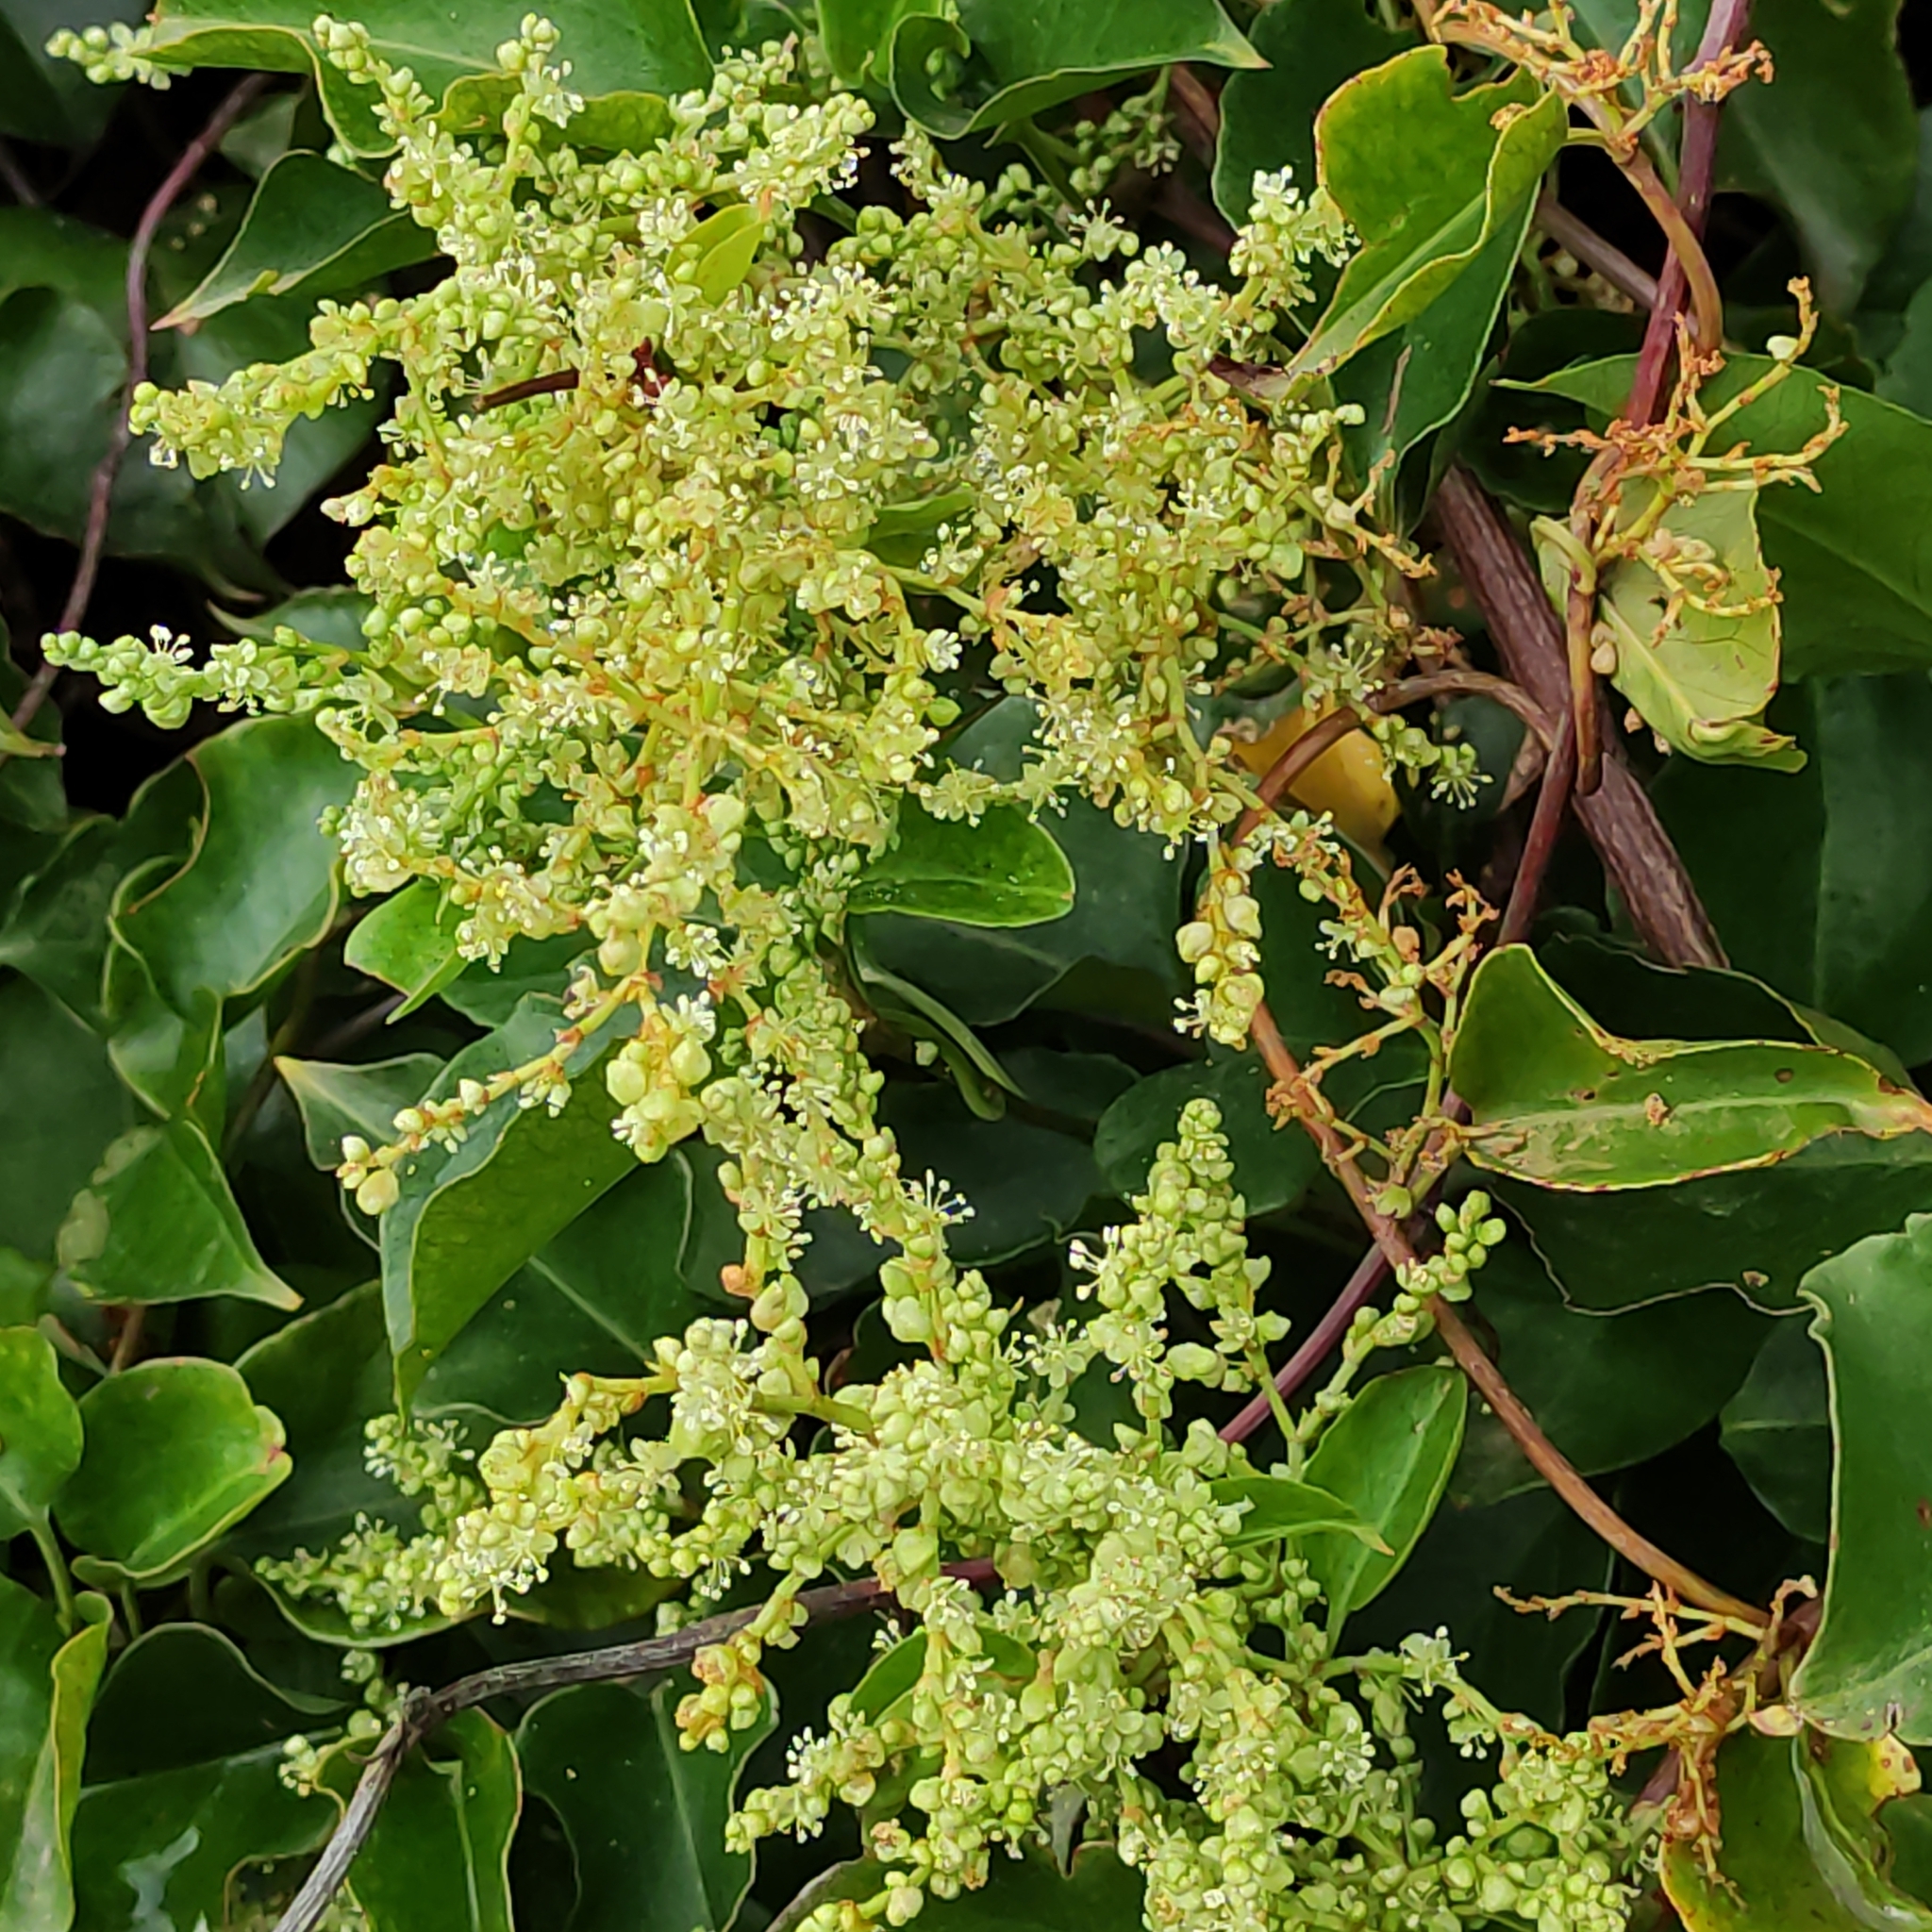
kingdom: Plantae
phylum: Tracheophyta
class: Magnoliopsida
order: Caryophyllales
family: Polygonaceae
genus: Muehlenbeckia
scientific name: Muehlenbeckia australis
